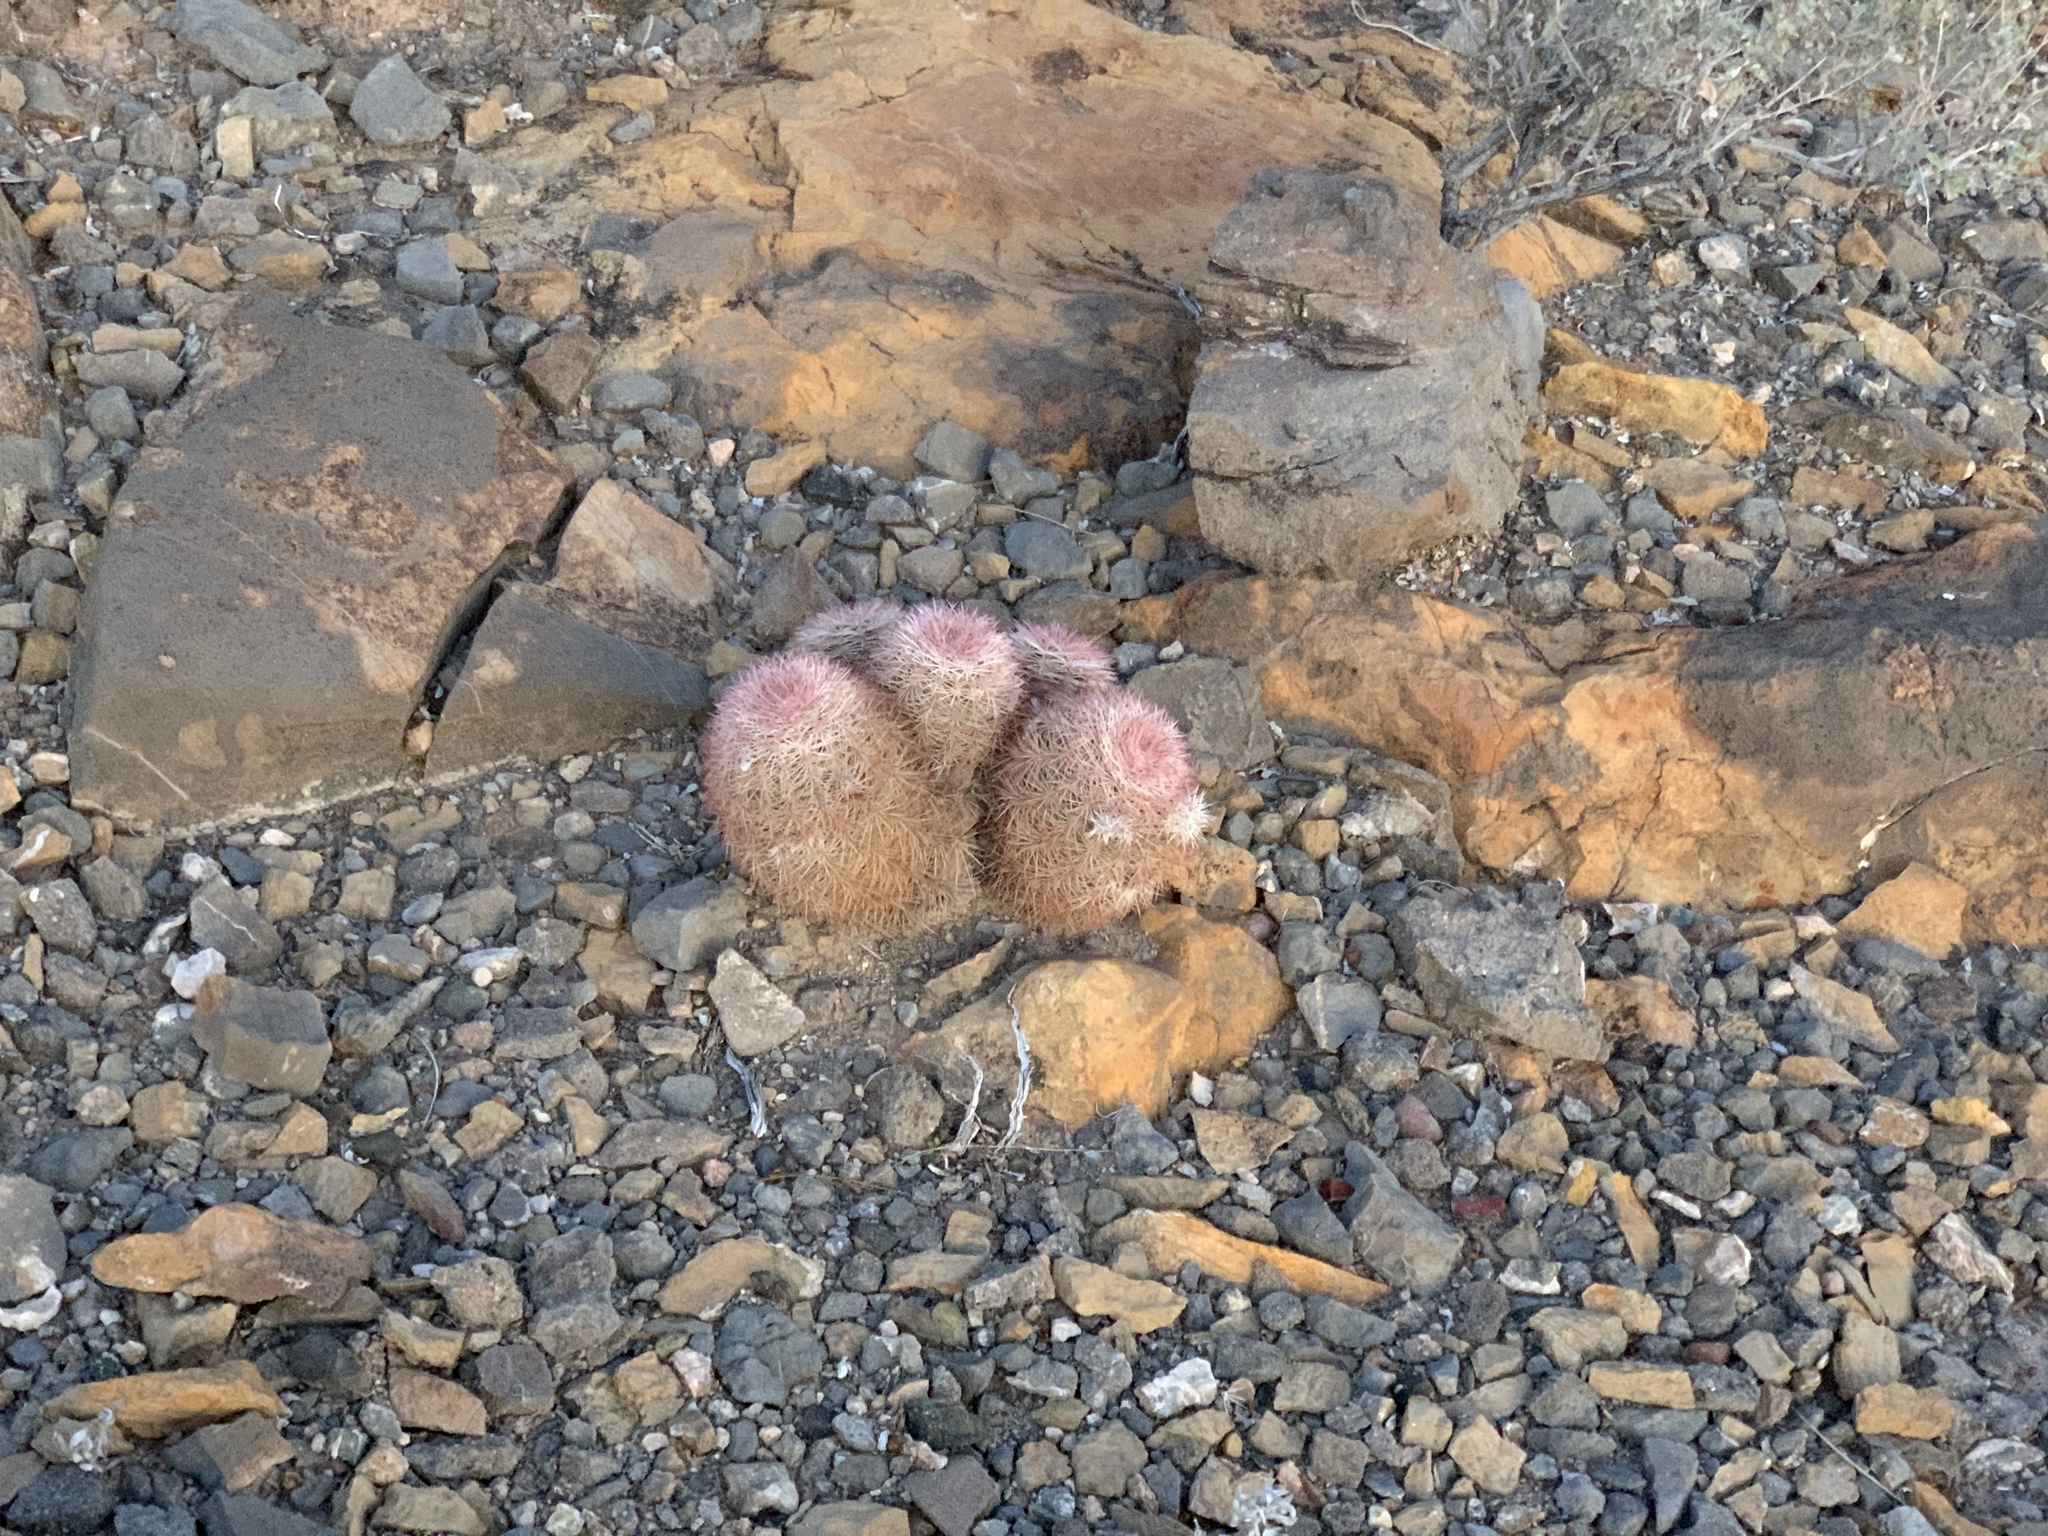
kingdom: Plantae
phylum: Tracheophyta
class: Magnoliopsida
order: Caryophyllales
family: Cactaceae
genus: Echinocereus
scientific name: Echinocereus dasyacanthus
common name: Spiny hedgehog cactus
